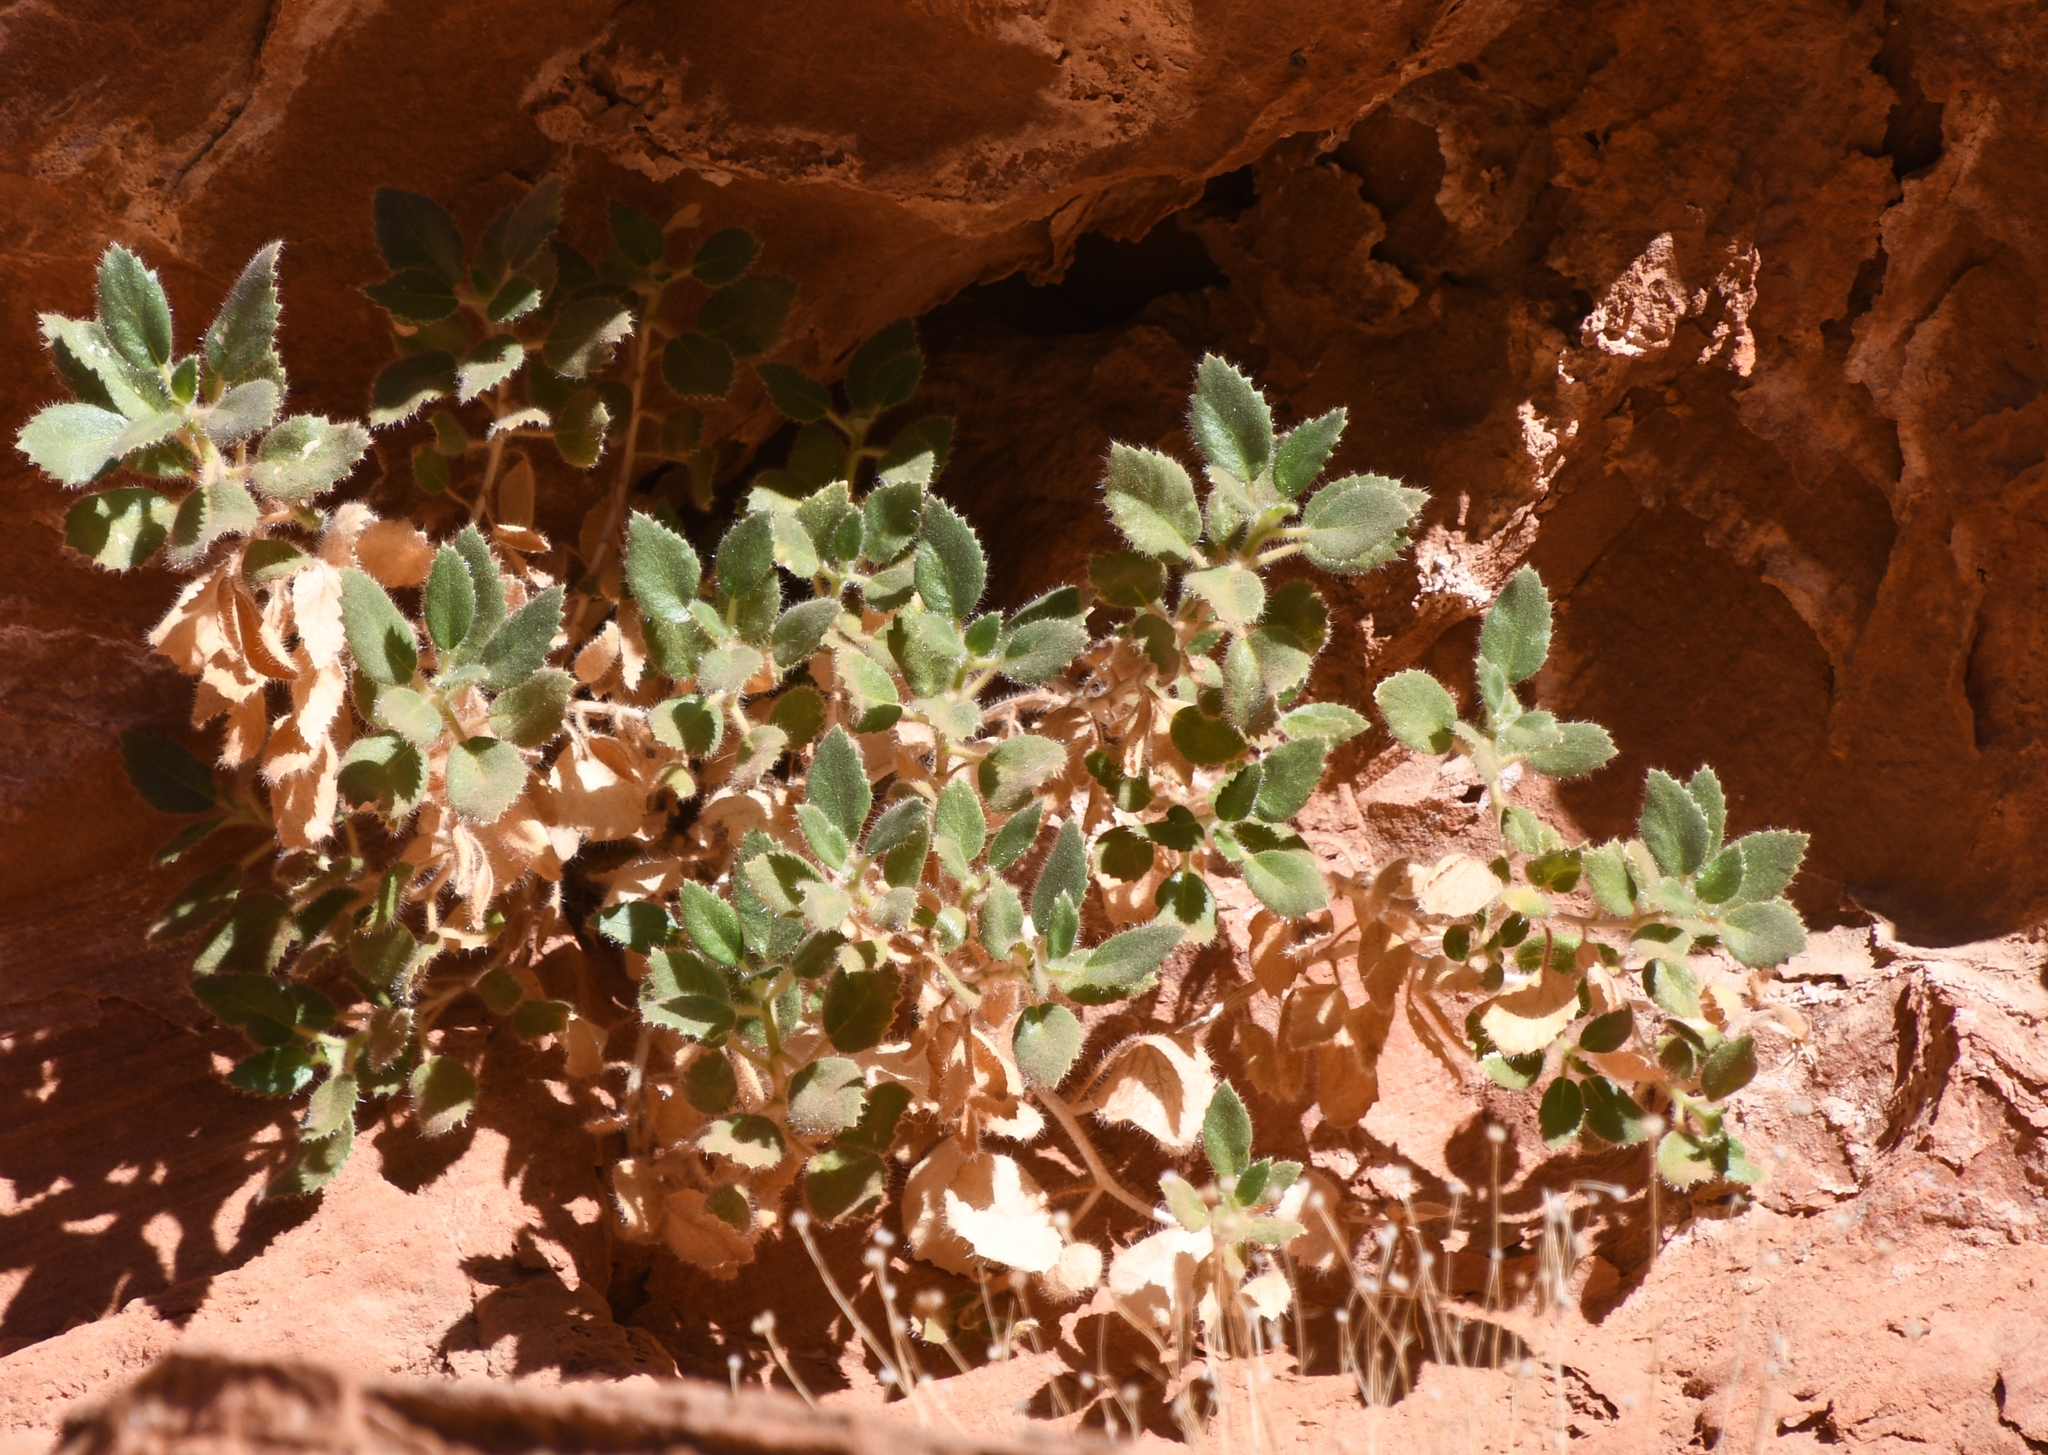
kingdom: Plantae
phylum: Tracheophyta
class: Magnoliopsida
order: Cornales
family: Loasaceae
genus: Eucnide
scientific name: Eucnide urens
